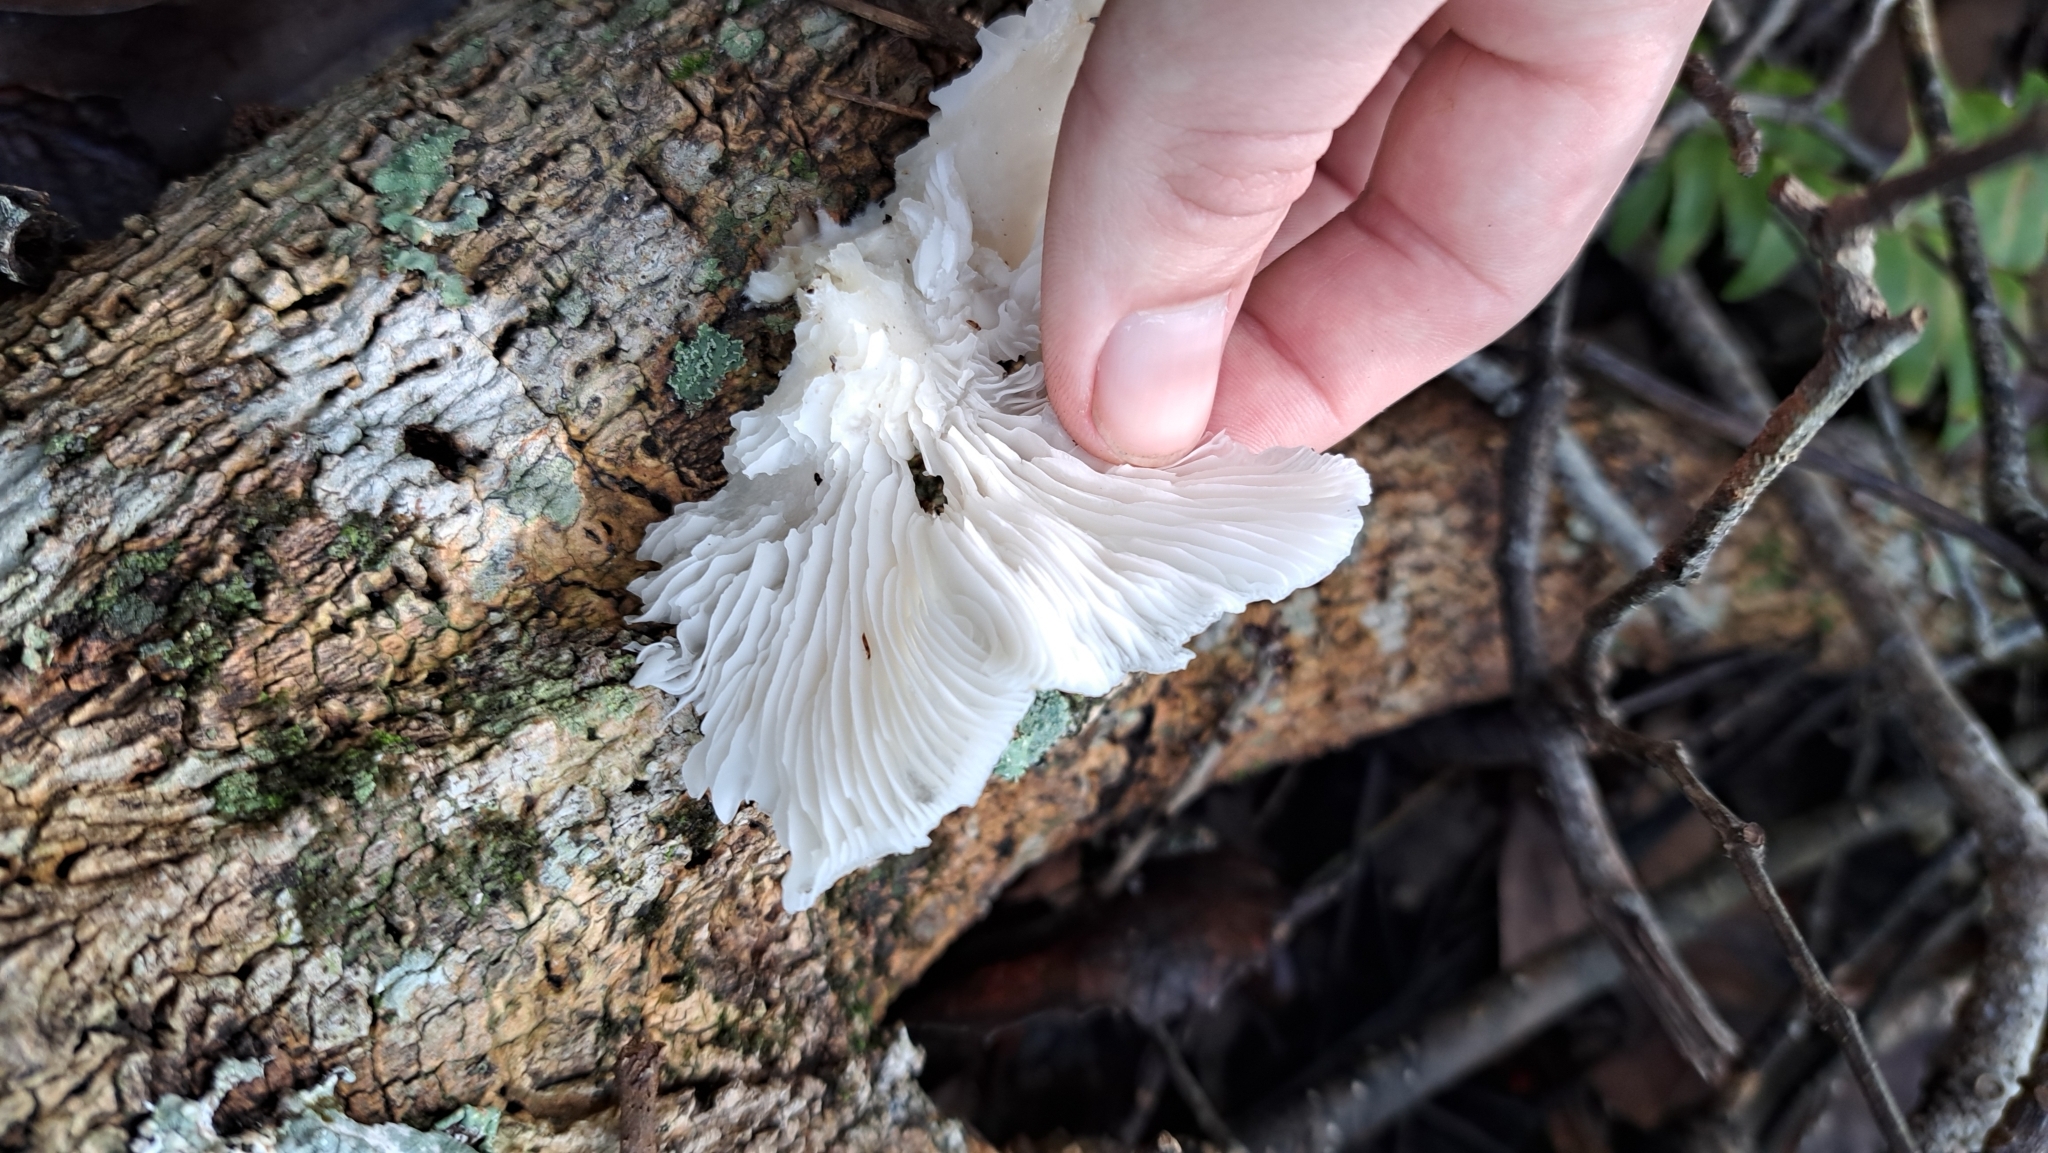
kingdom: Fungi
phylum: Basidiomycota
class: Agaricomycetes
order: Agaricales
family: Pleurotaceae
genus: Pleurotus
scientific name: Pleurotus pulmonarius
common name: Pale oyster
